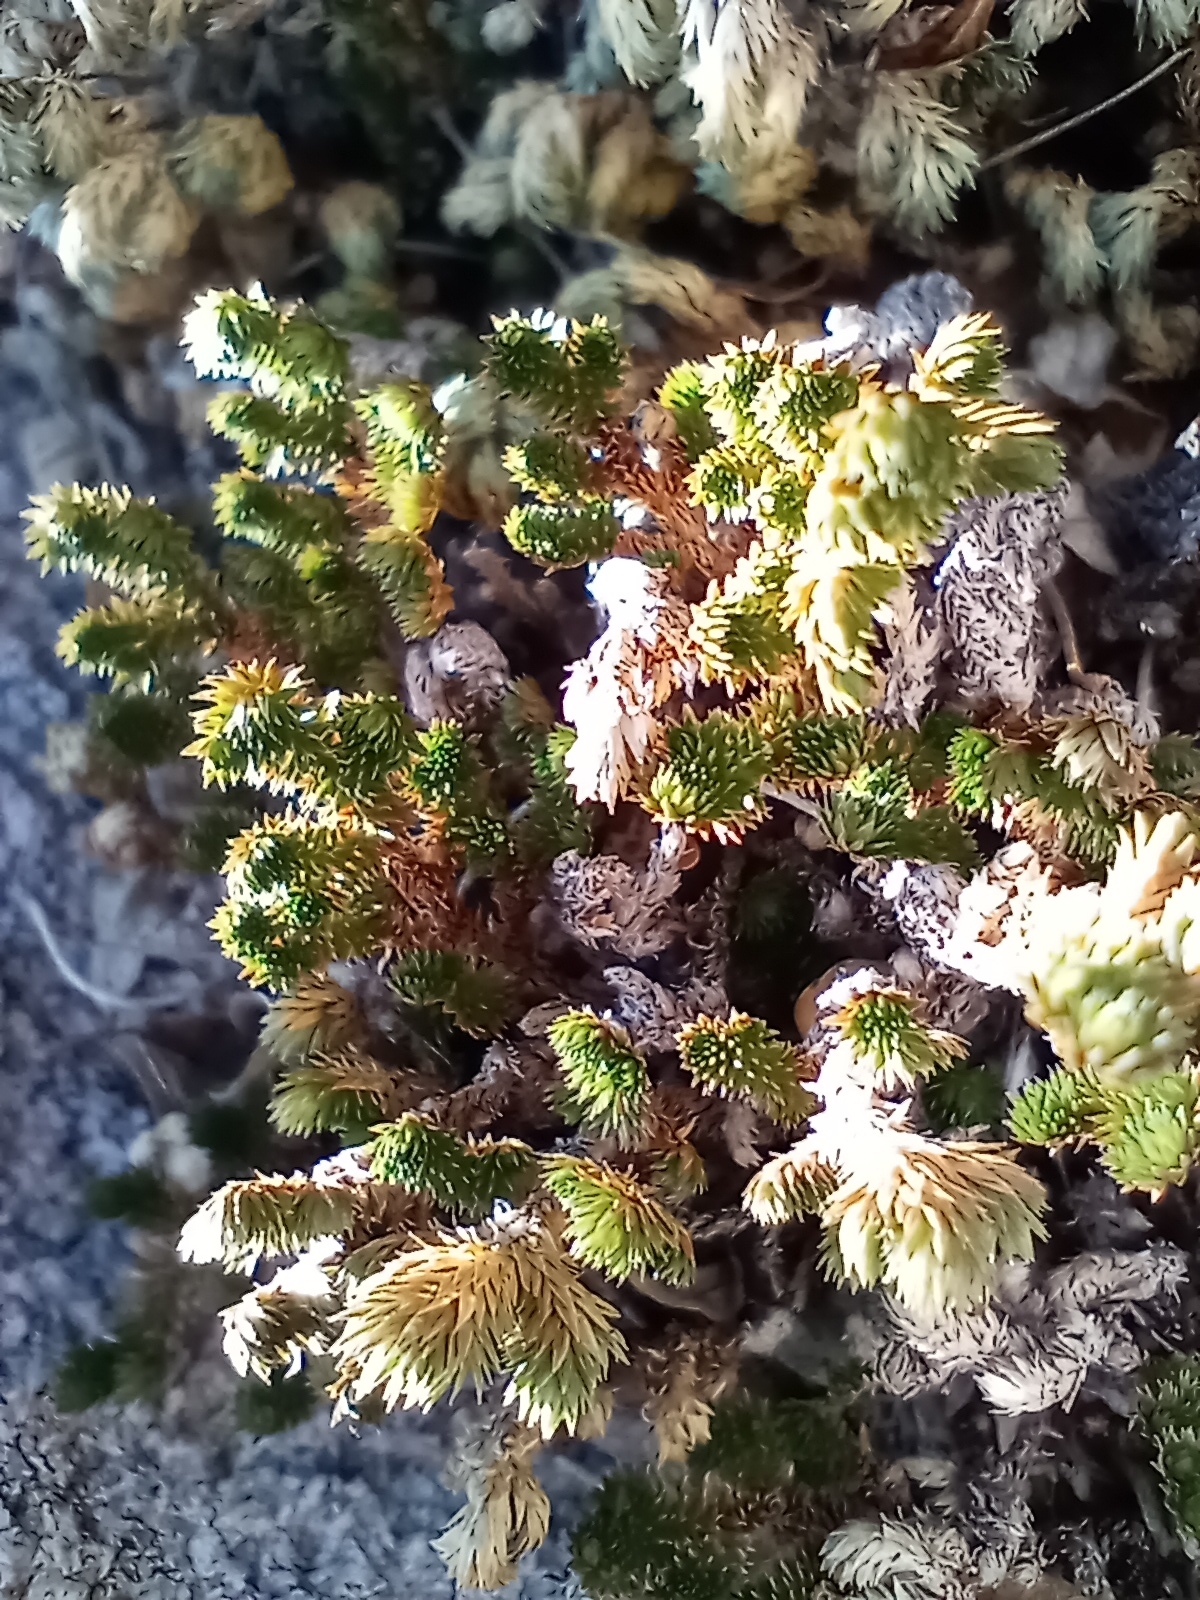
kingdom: Plantae
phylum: Tracheophyta
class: Lycopodiopsida
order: Selaginellales
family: Selaginellaceae
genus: Selaginella
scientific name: Selaginella arizonica
